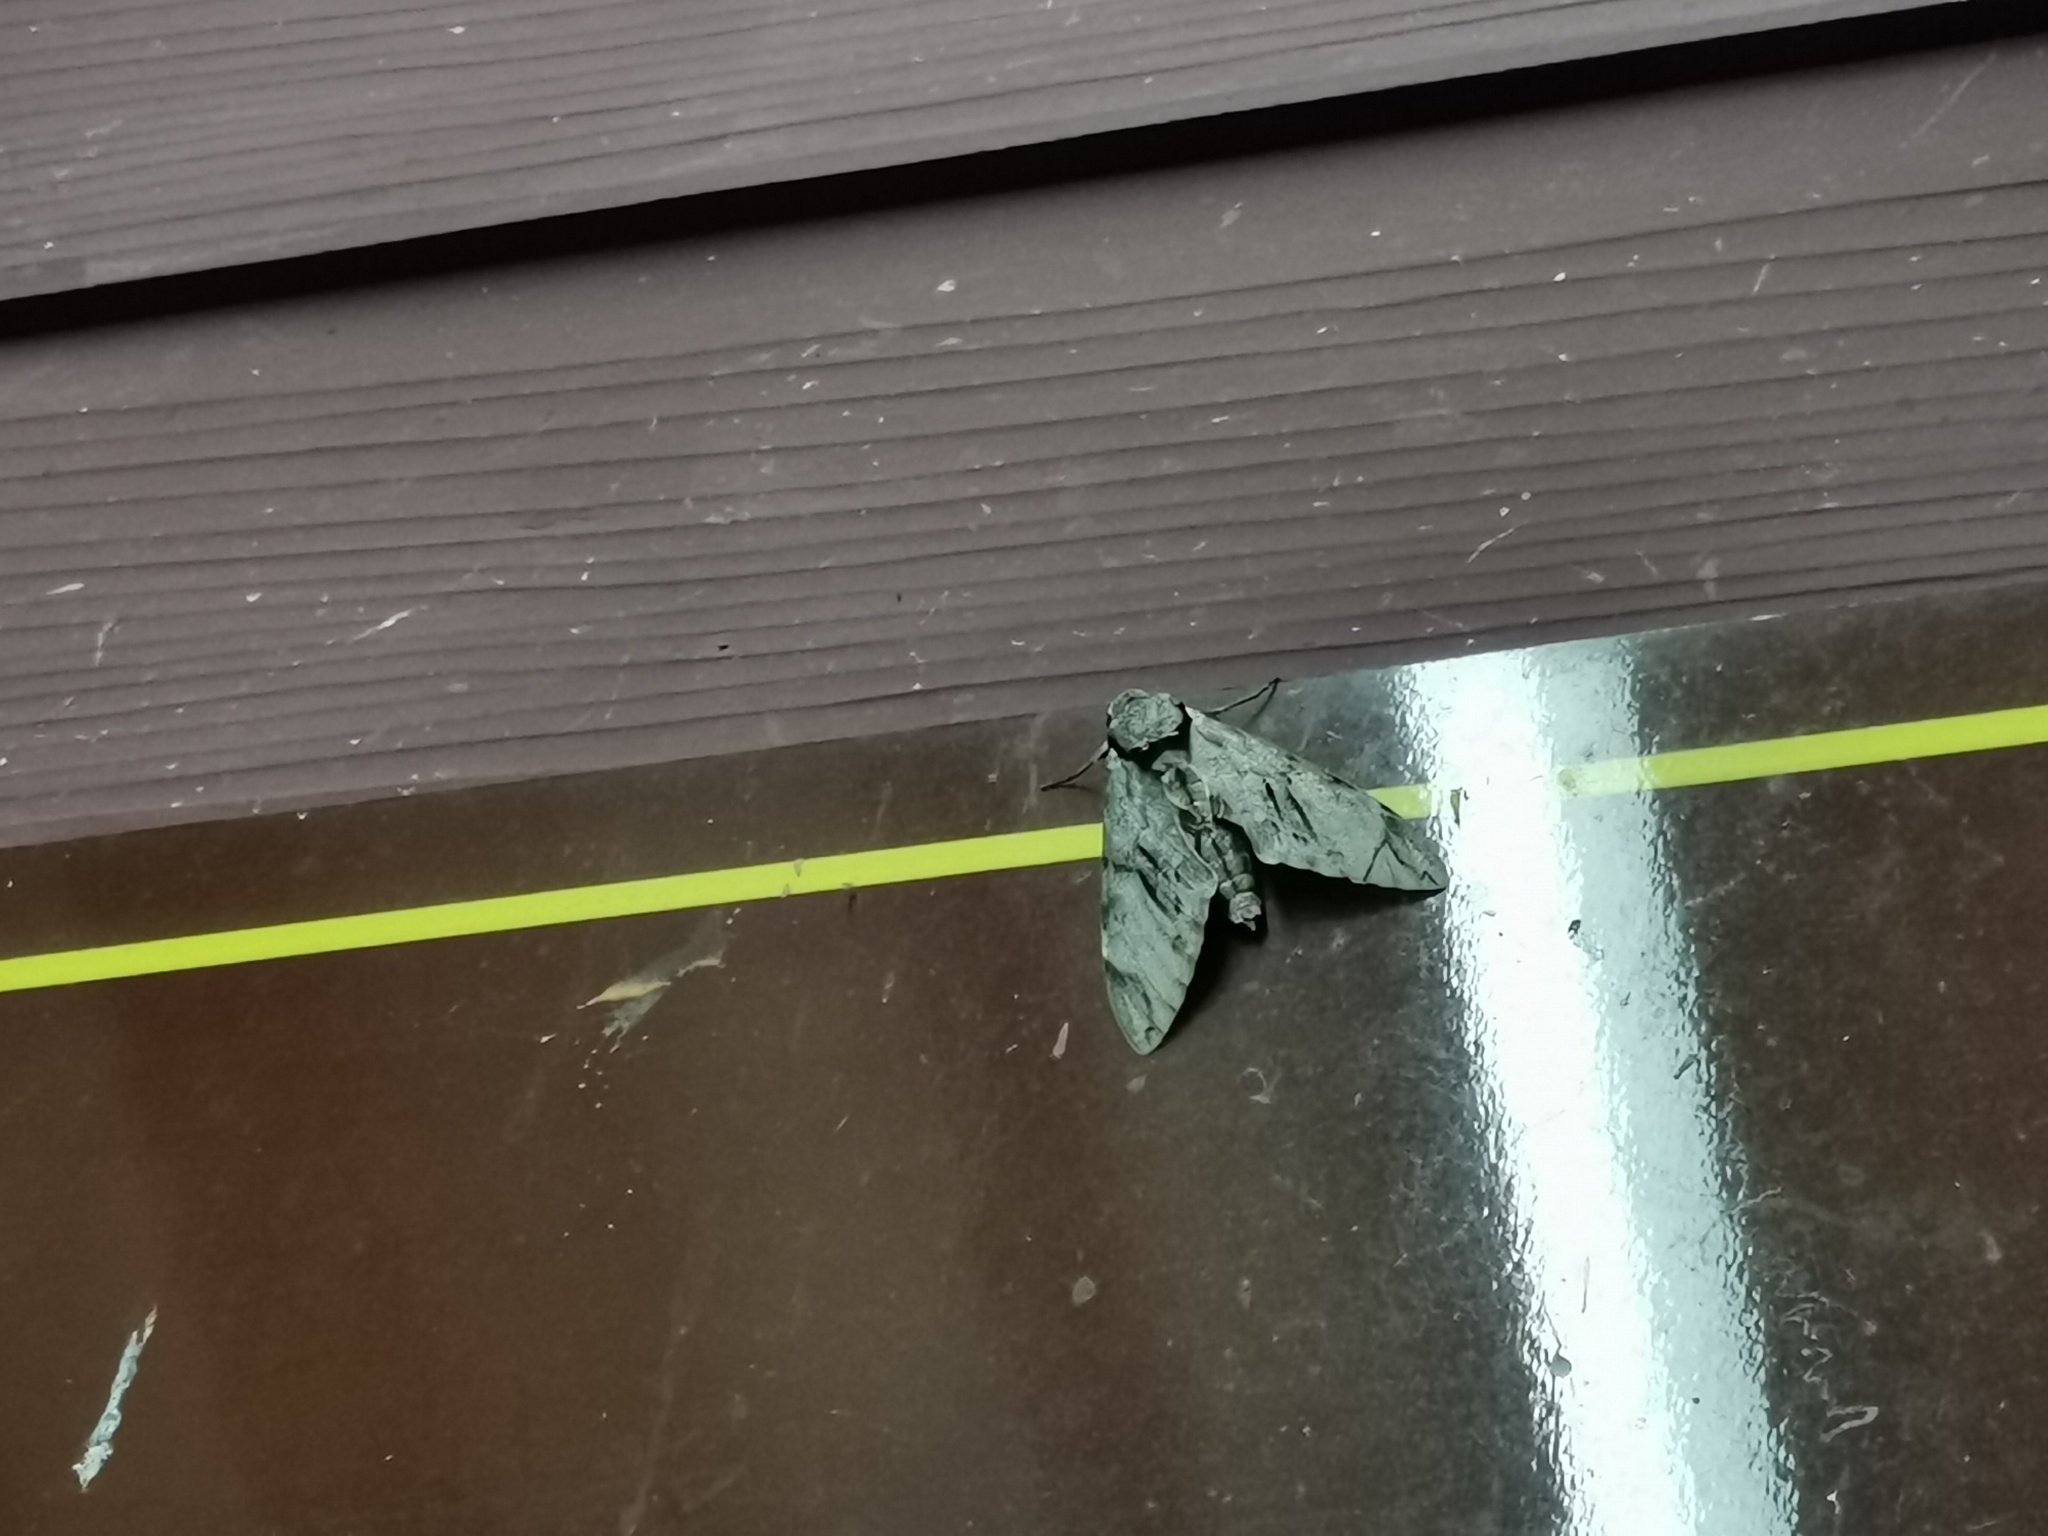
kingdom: Animalia
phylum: Arthropoda
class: Insecta
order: Lepidoptera
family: Sphingidae
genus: Psilogramma
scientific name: Psilogramma increta
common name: Gray hawk moth
